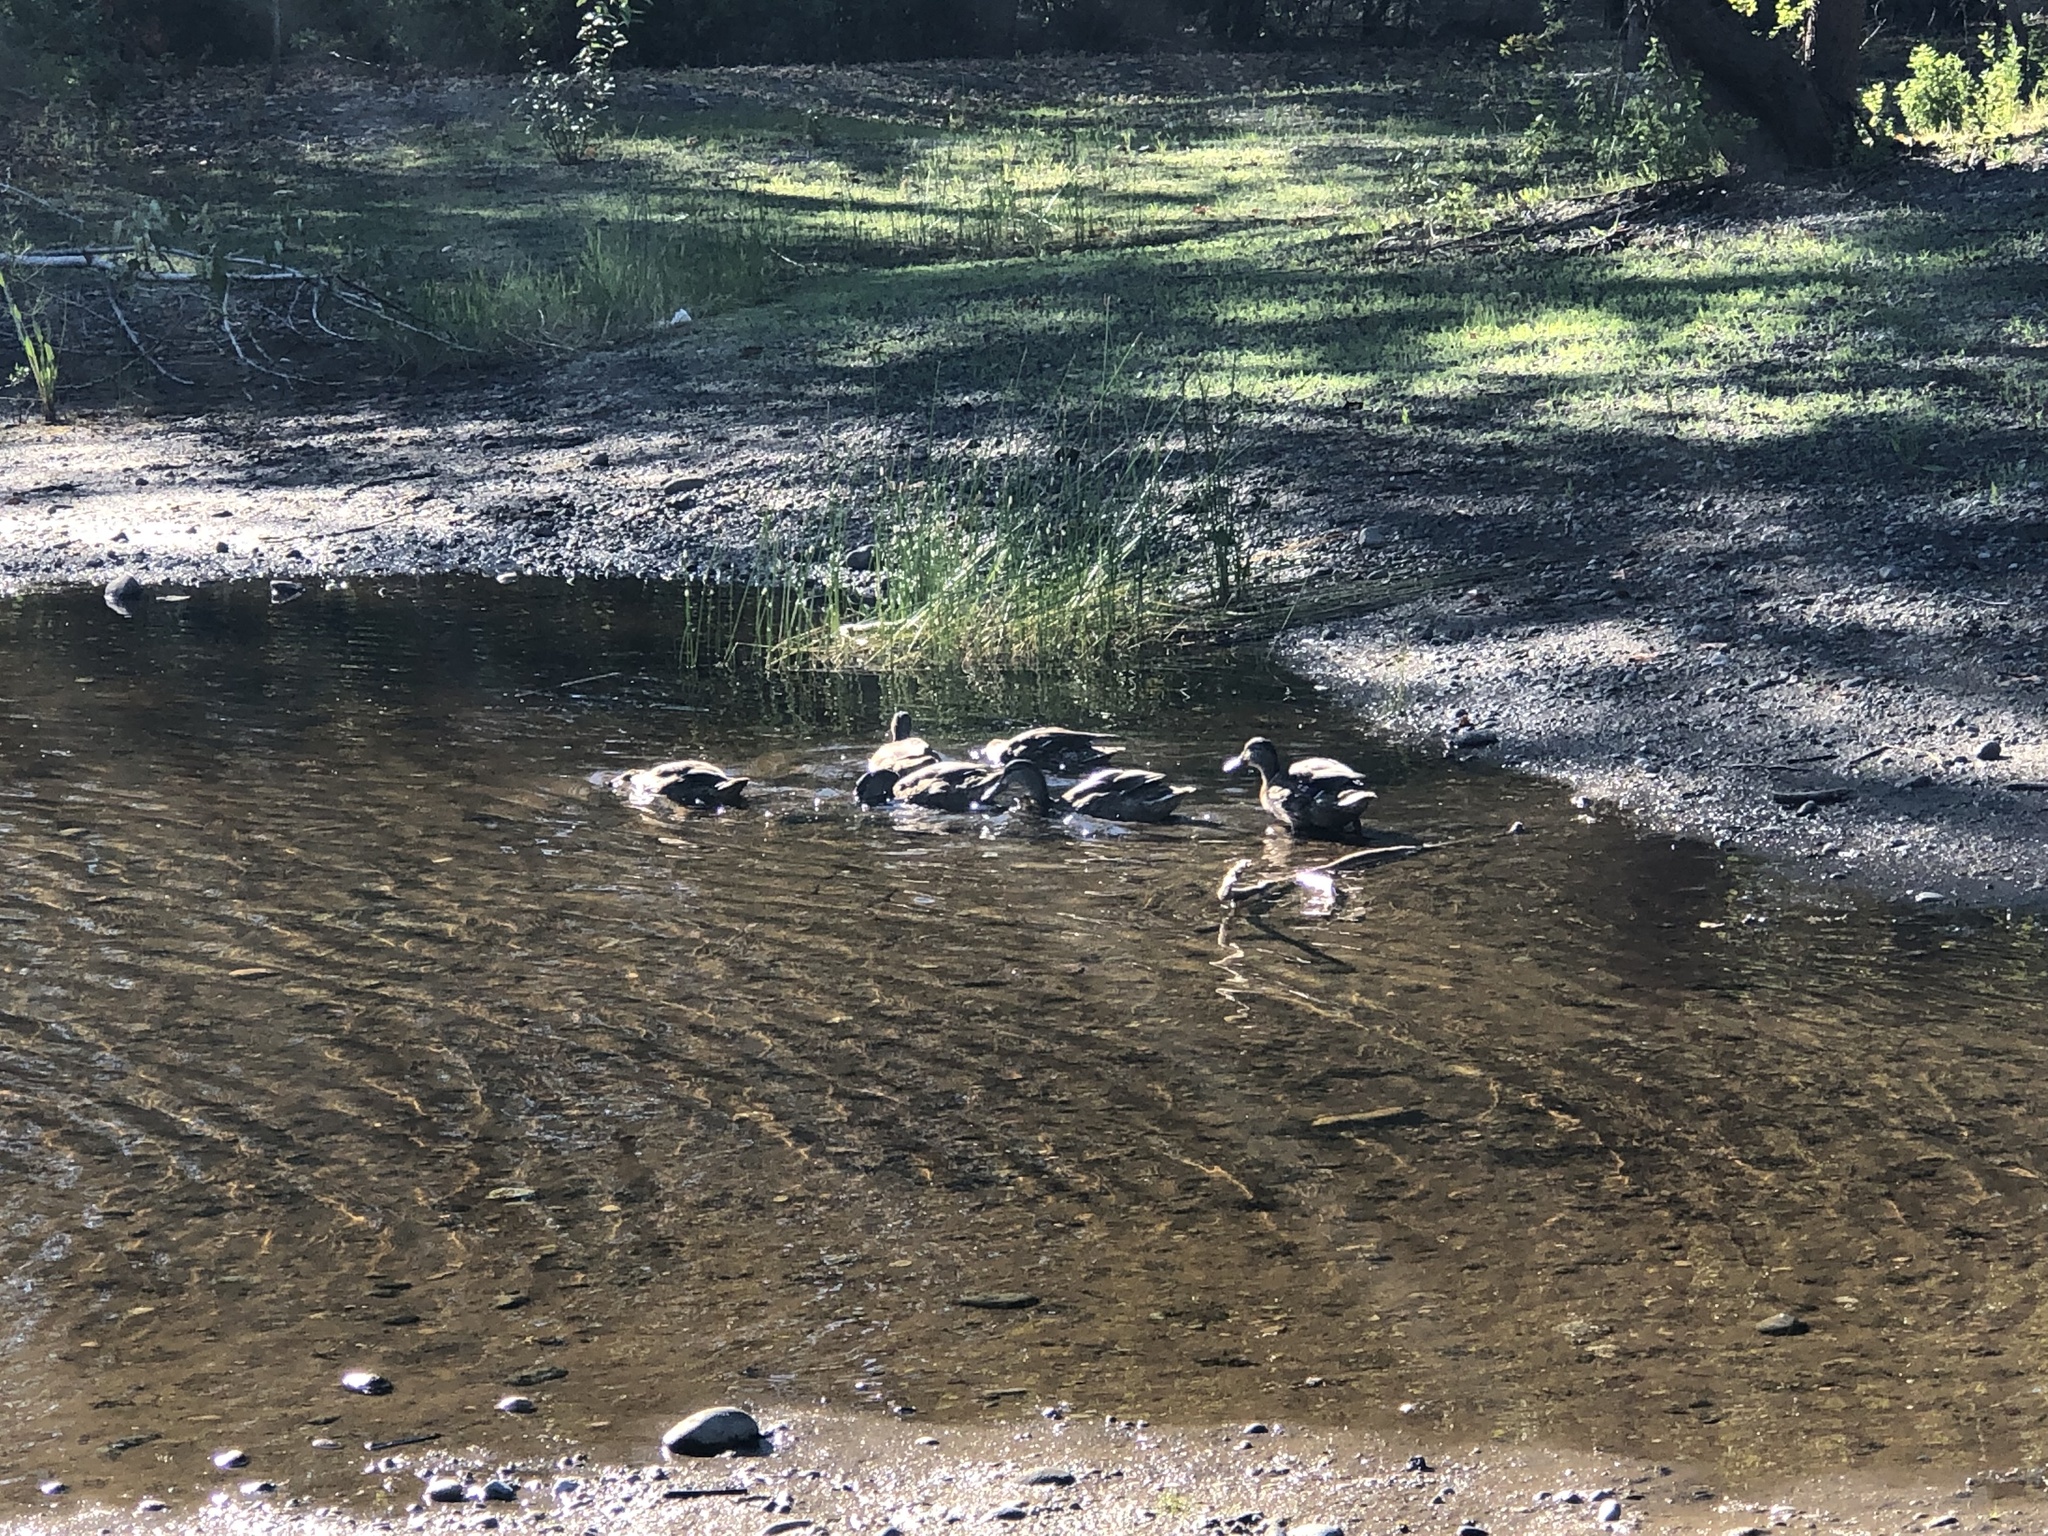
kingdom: Animalia
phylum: Chordata
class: Aves
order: Anseriformes
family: Anatidae
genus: Anas
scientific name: Anas platyrhynchos
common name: Mallard
